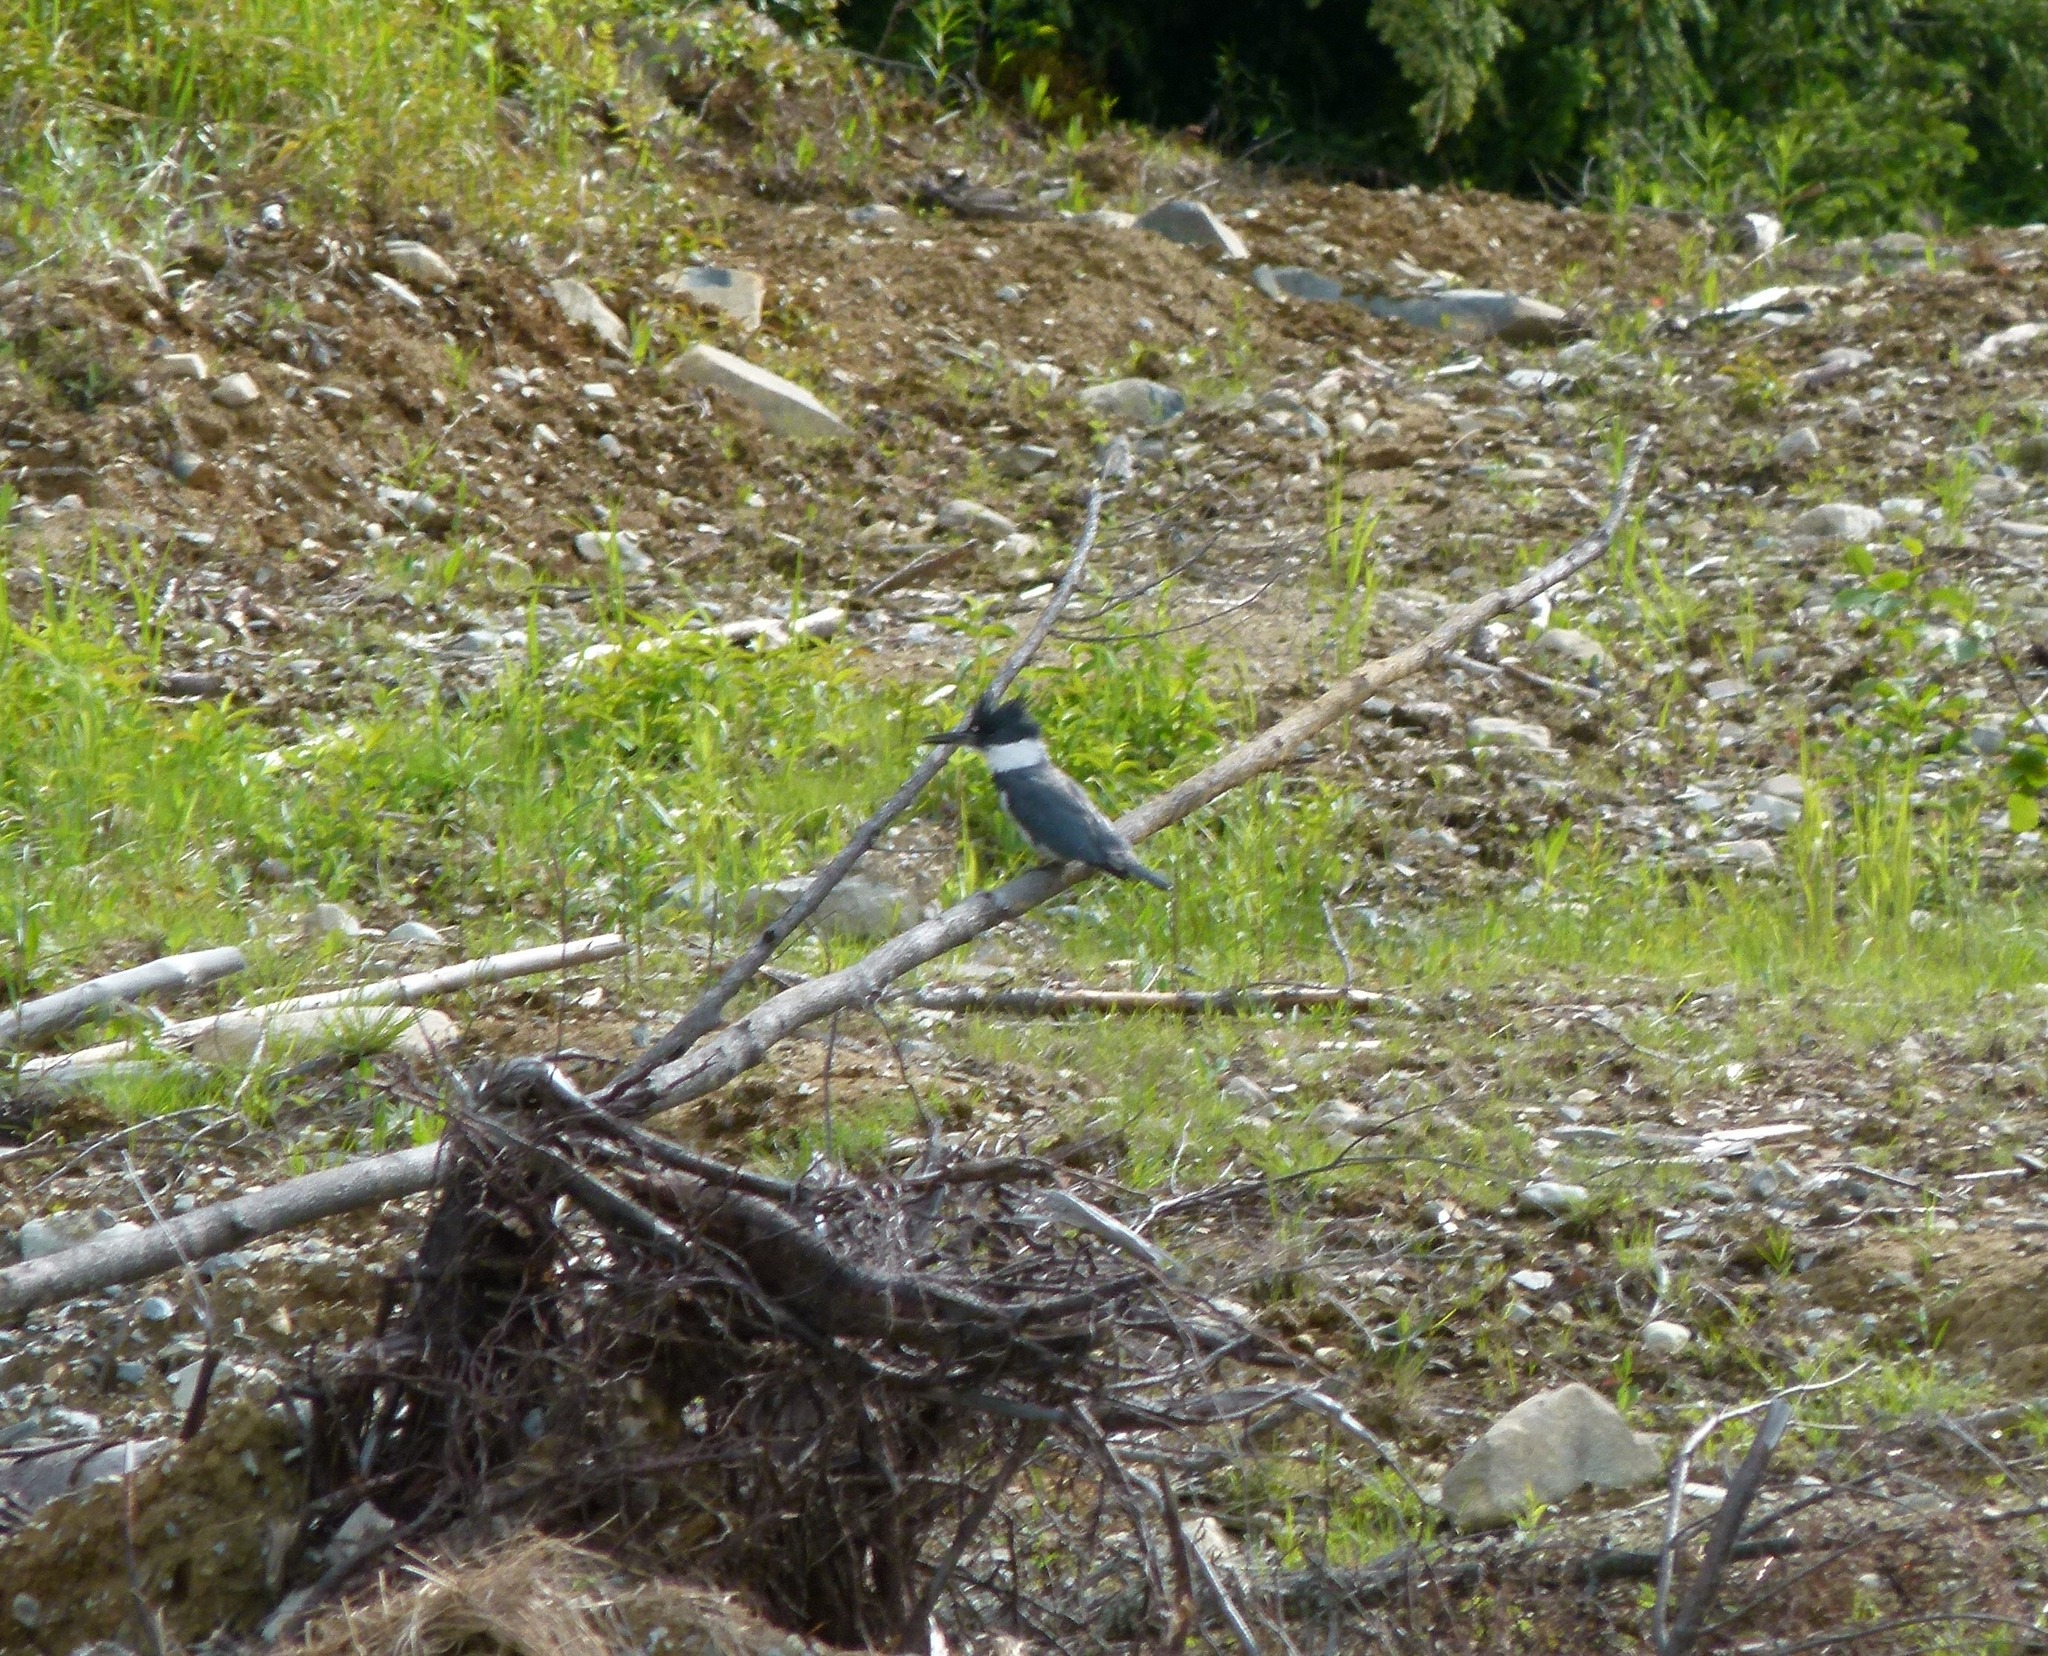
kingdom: Animalia
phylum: Chordata
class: Aves
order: Coraciiformes
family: Alcedinidae
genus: Megaceryle
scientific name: Megaceryle alcyon
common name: Belted kingfisher
